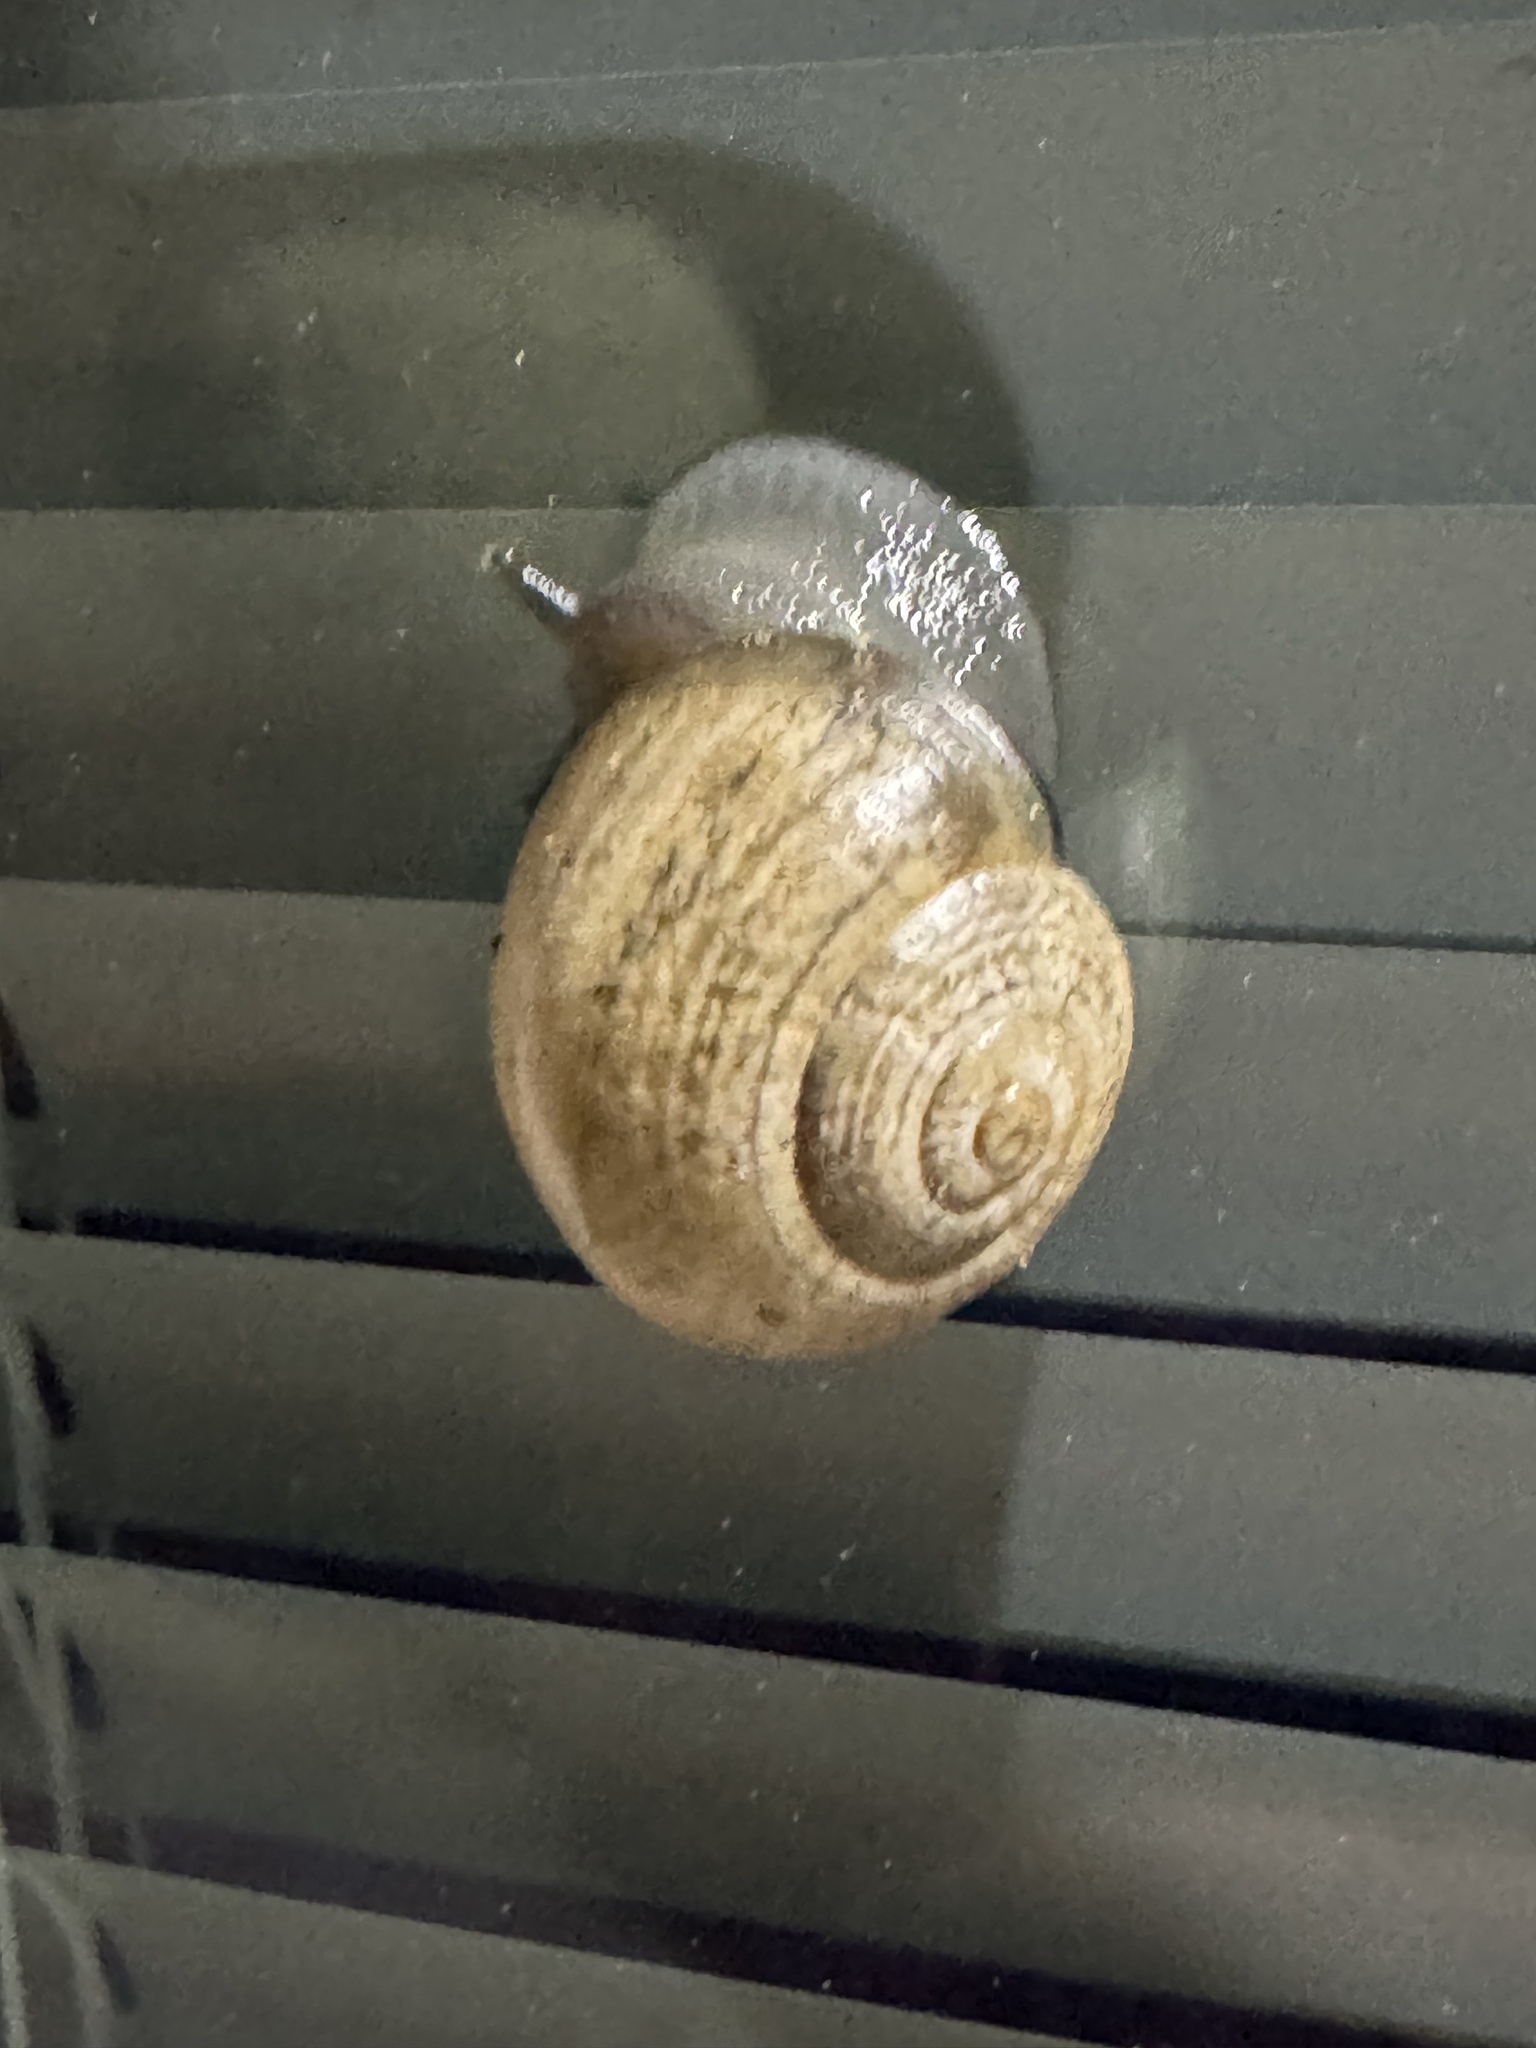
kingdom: Animalia
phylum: Mollusca
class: Gastropoda
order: Stylommatophora
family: Helicidae
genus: Otala
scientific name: Otala lactea
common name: Milk snail
